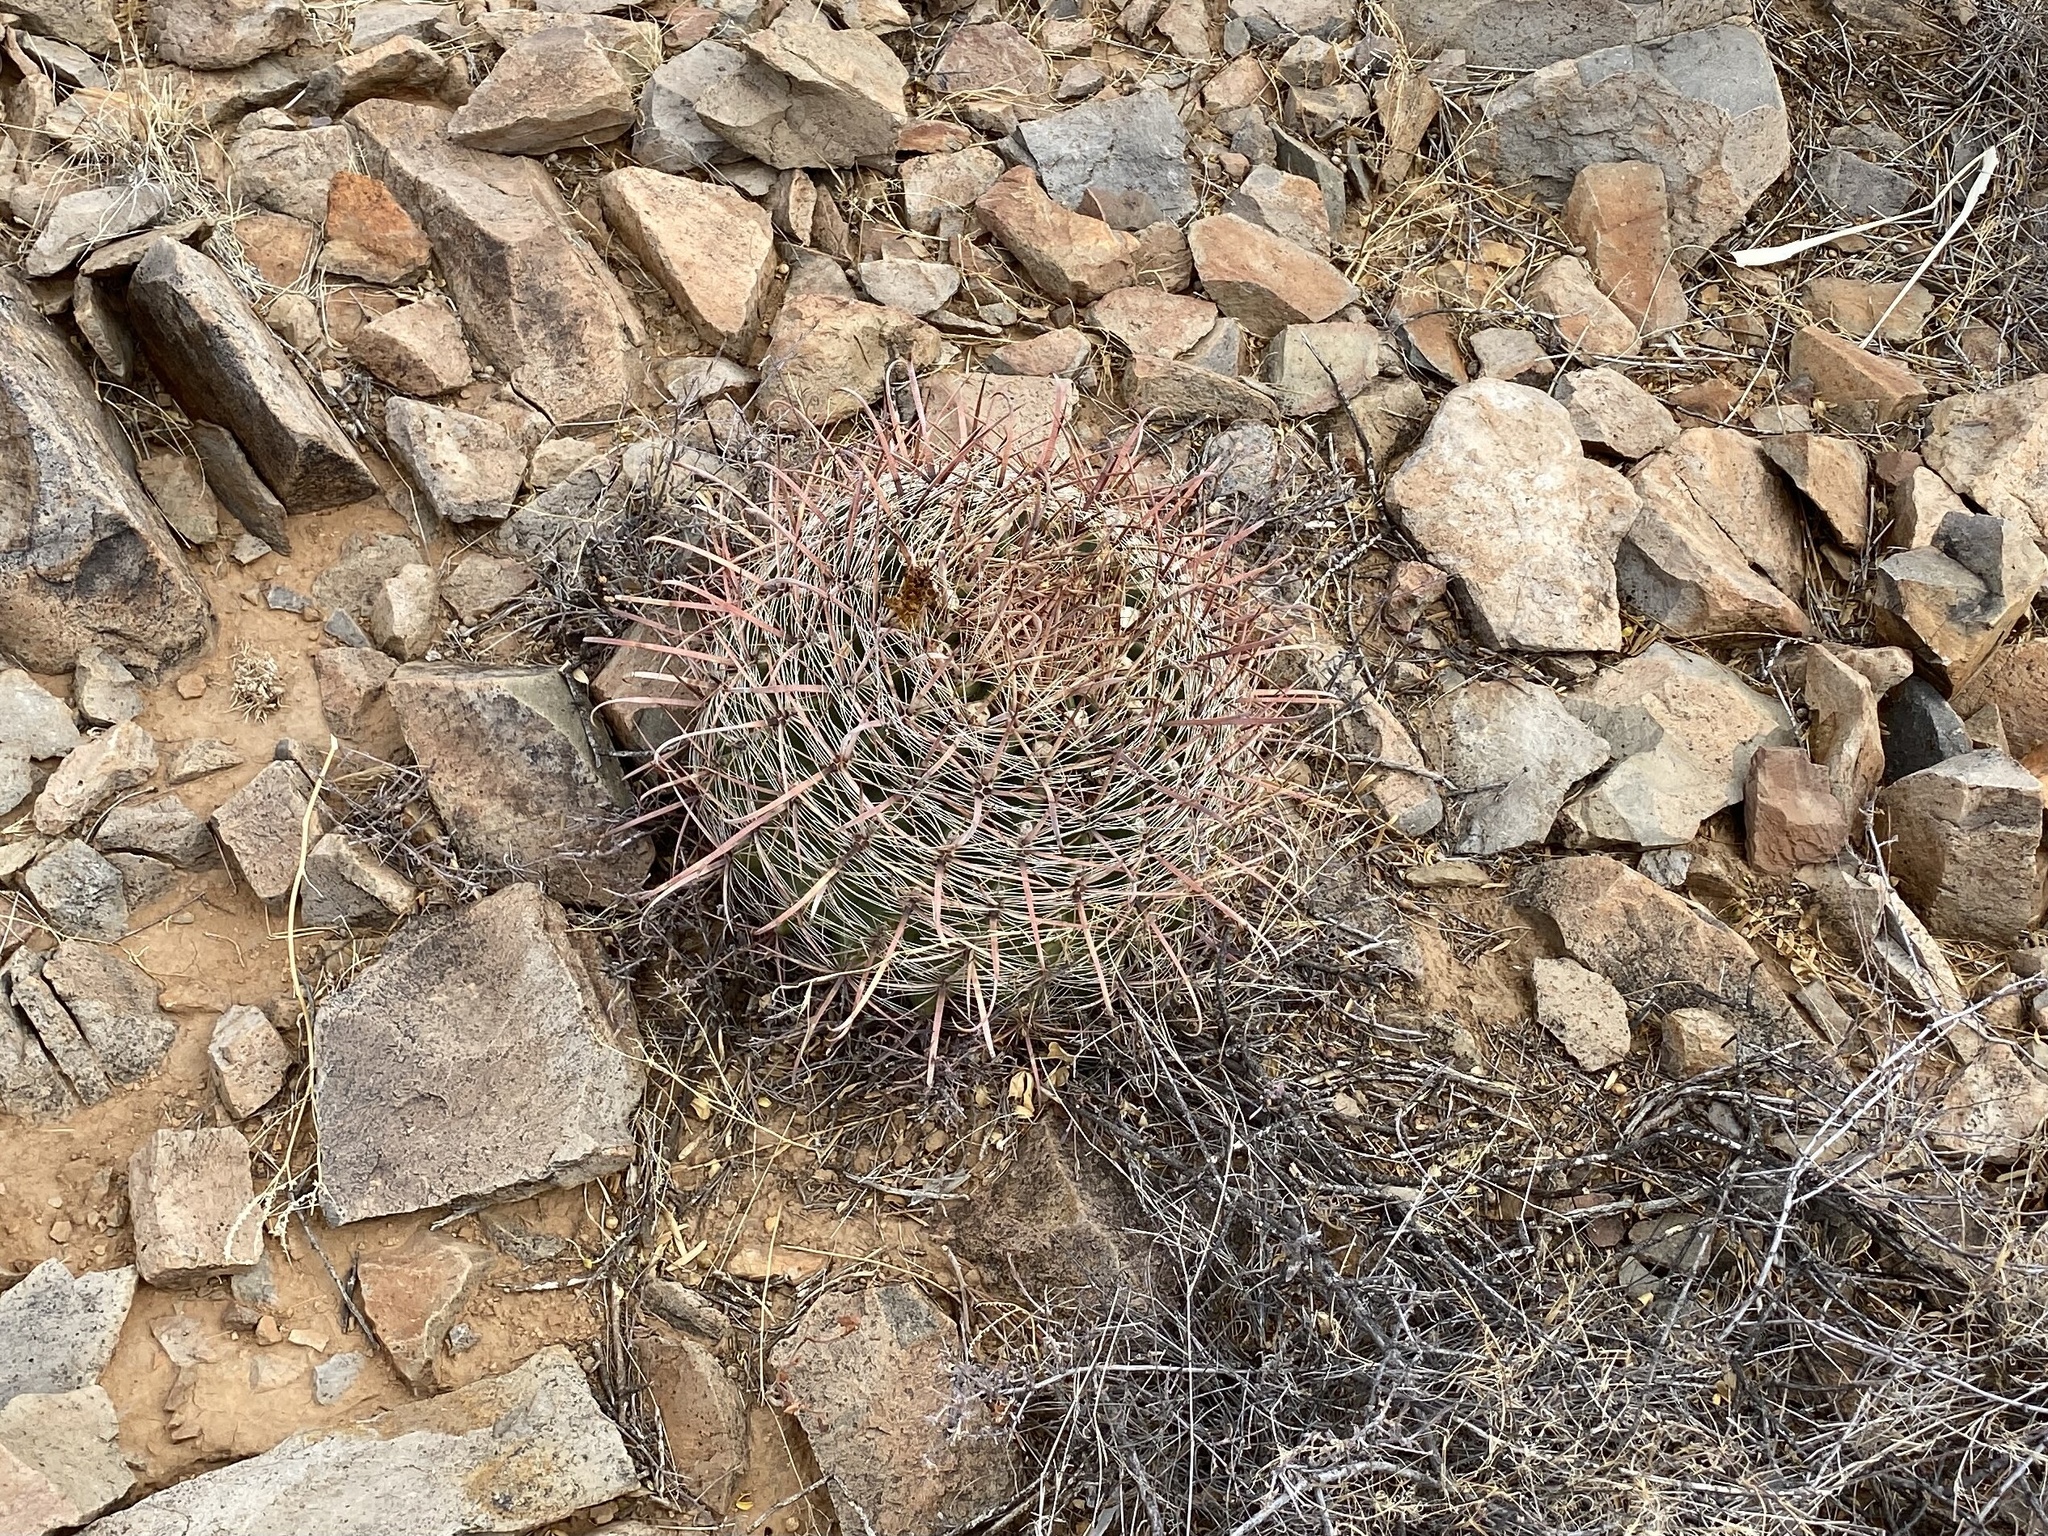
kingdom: Plantae
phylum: Tracheophyta
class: Magnoliopsida
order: Caryophyllales
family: Cactaceae
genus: Ferocactus
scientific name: Ferocactus wislizeni
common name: Candy barrel cactus
